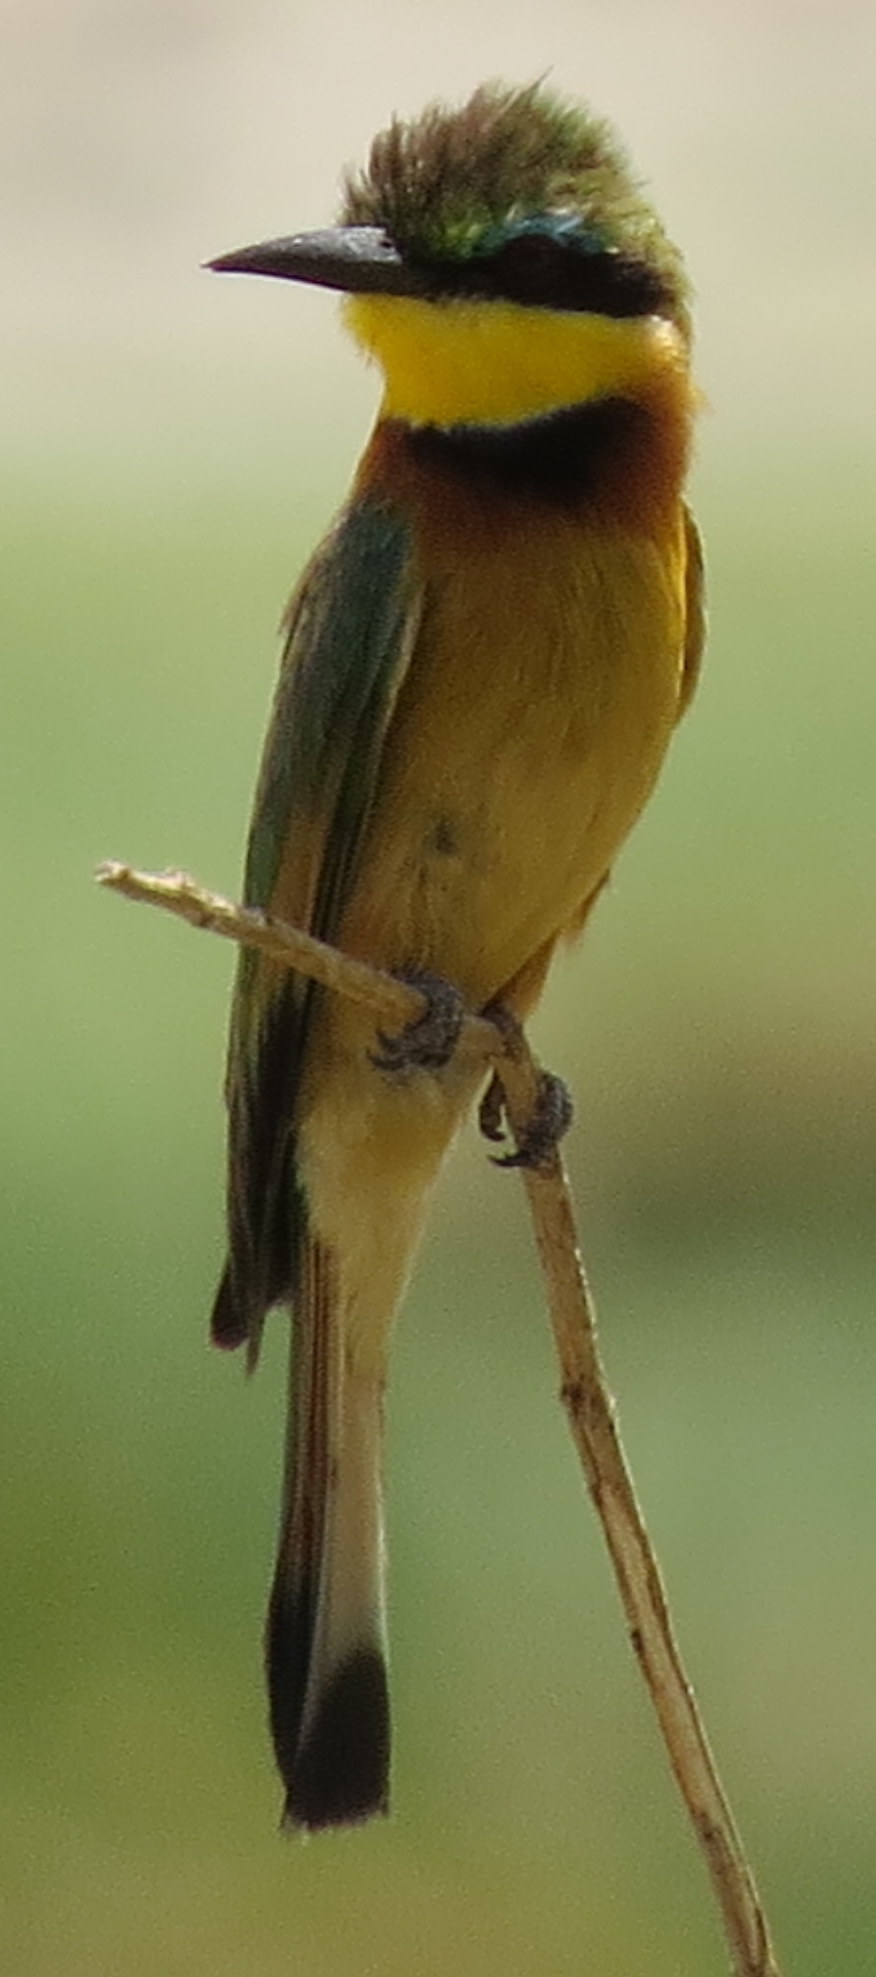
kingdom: Animalia
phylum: Chordata
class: Aves
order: Coraciiformes
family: Meropidae
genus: Merops
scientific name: Merops pusillus
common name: Little bee-eater
